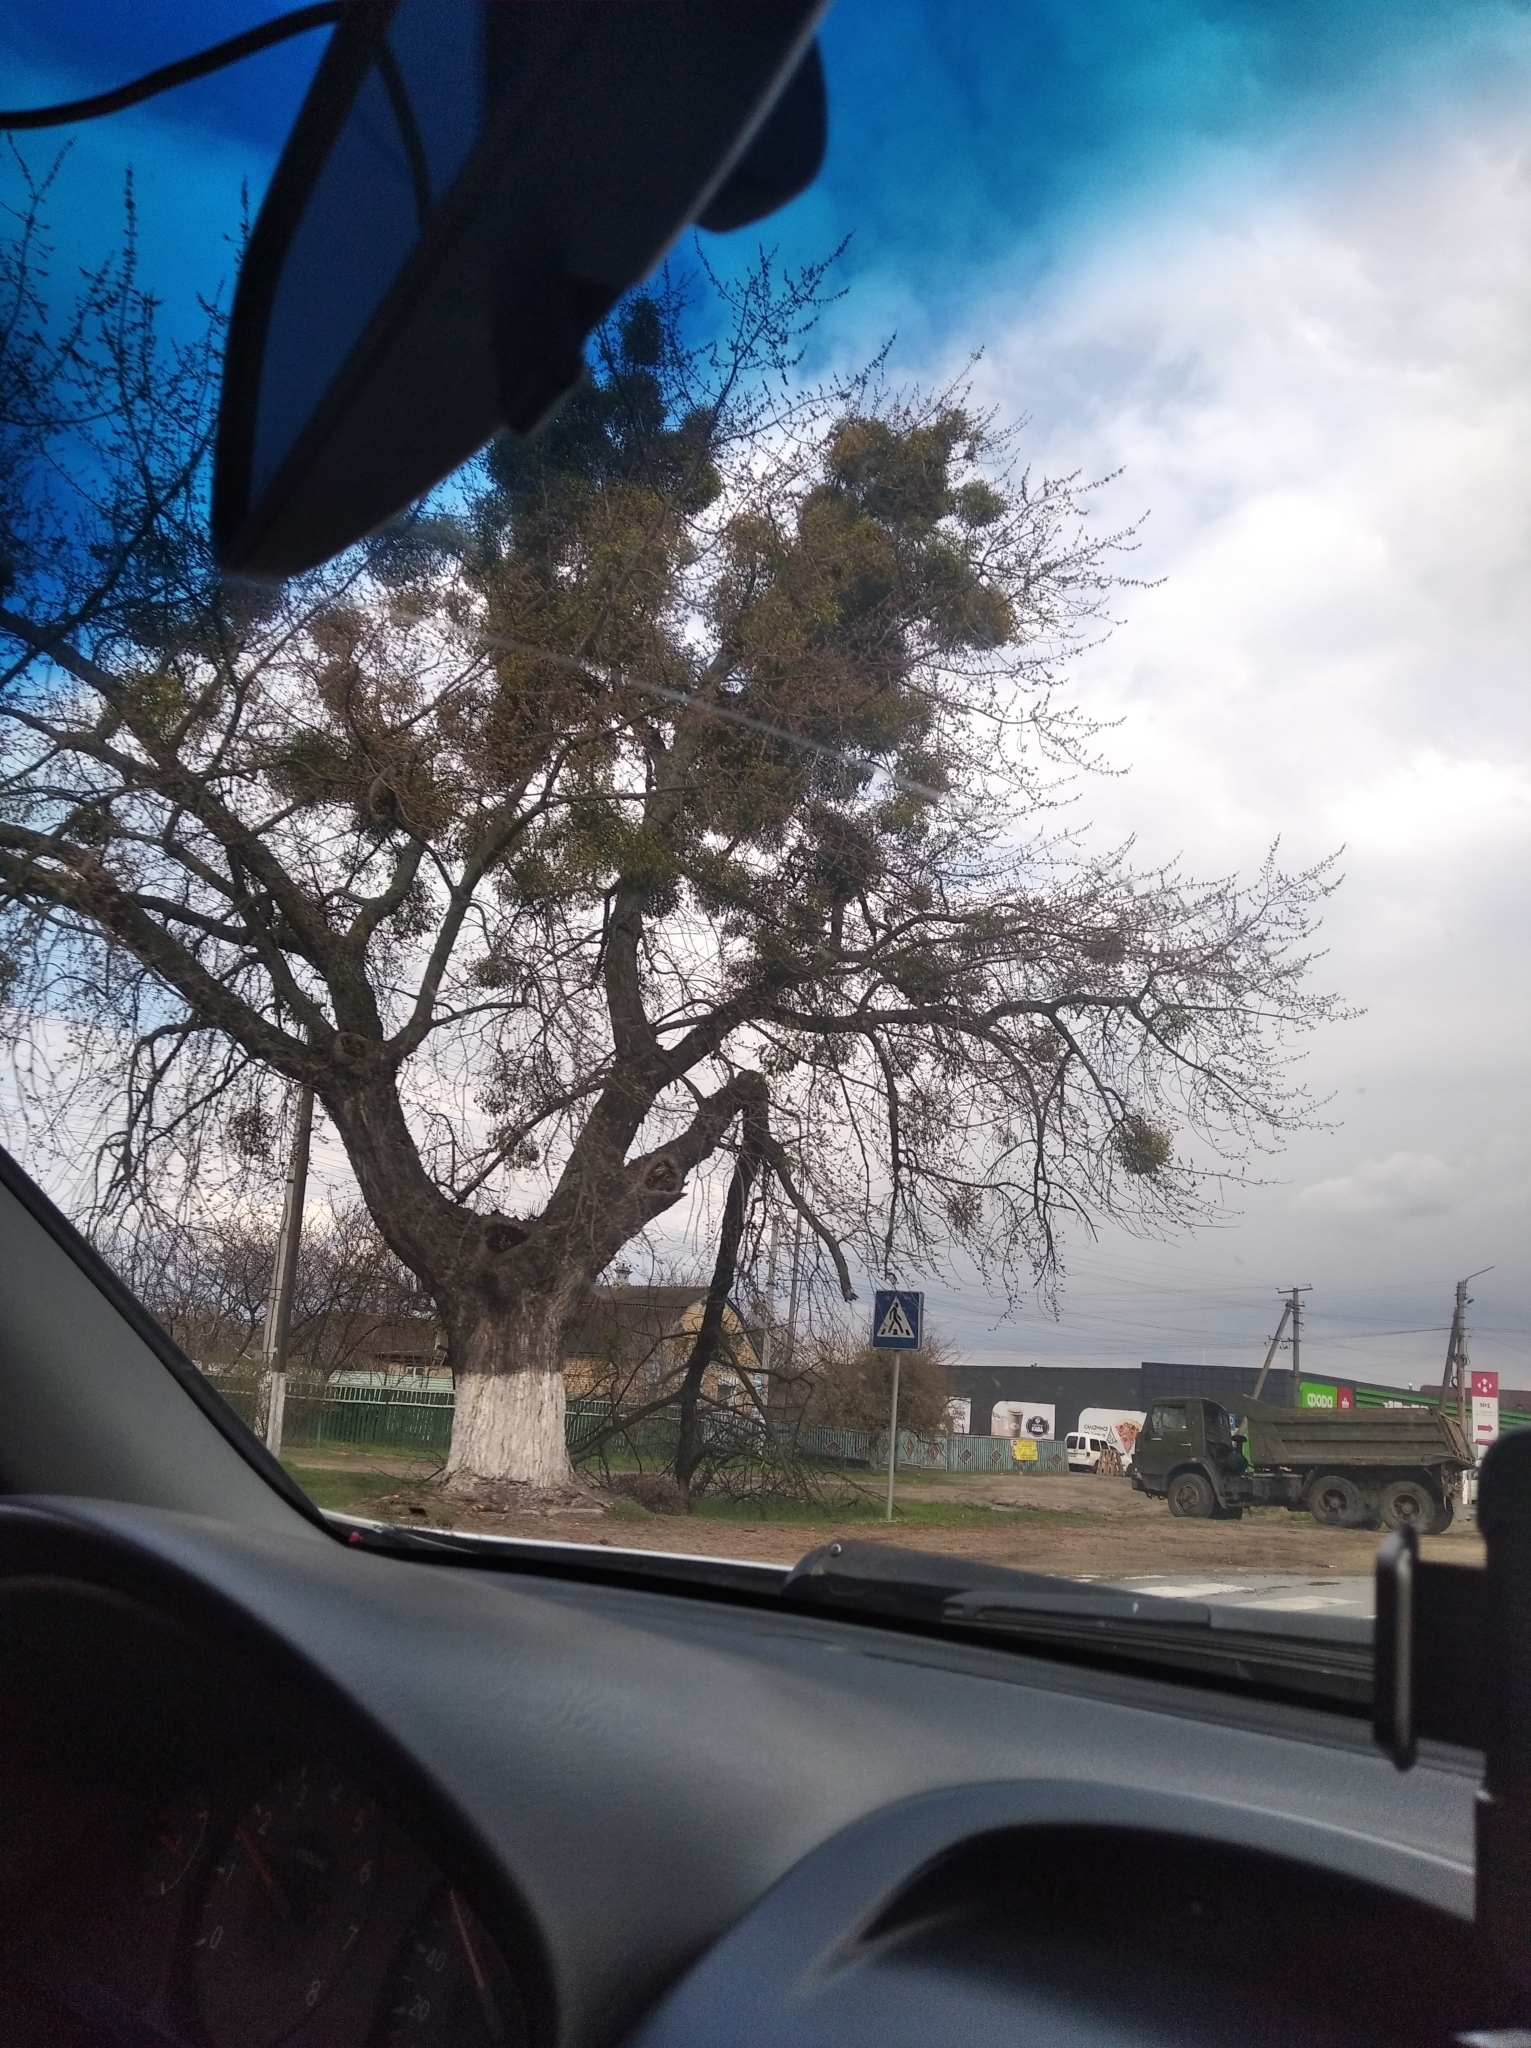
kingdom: Plantae
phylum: Tracheophyta
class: Magnoliopsida
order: Santalales
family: Viscaceae
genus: Viscum
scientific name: Viscum album
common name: Mistletoe
